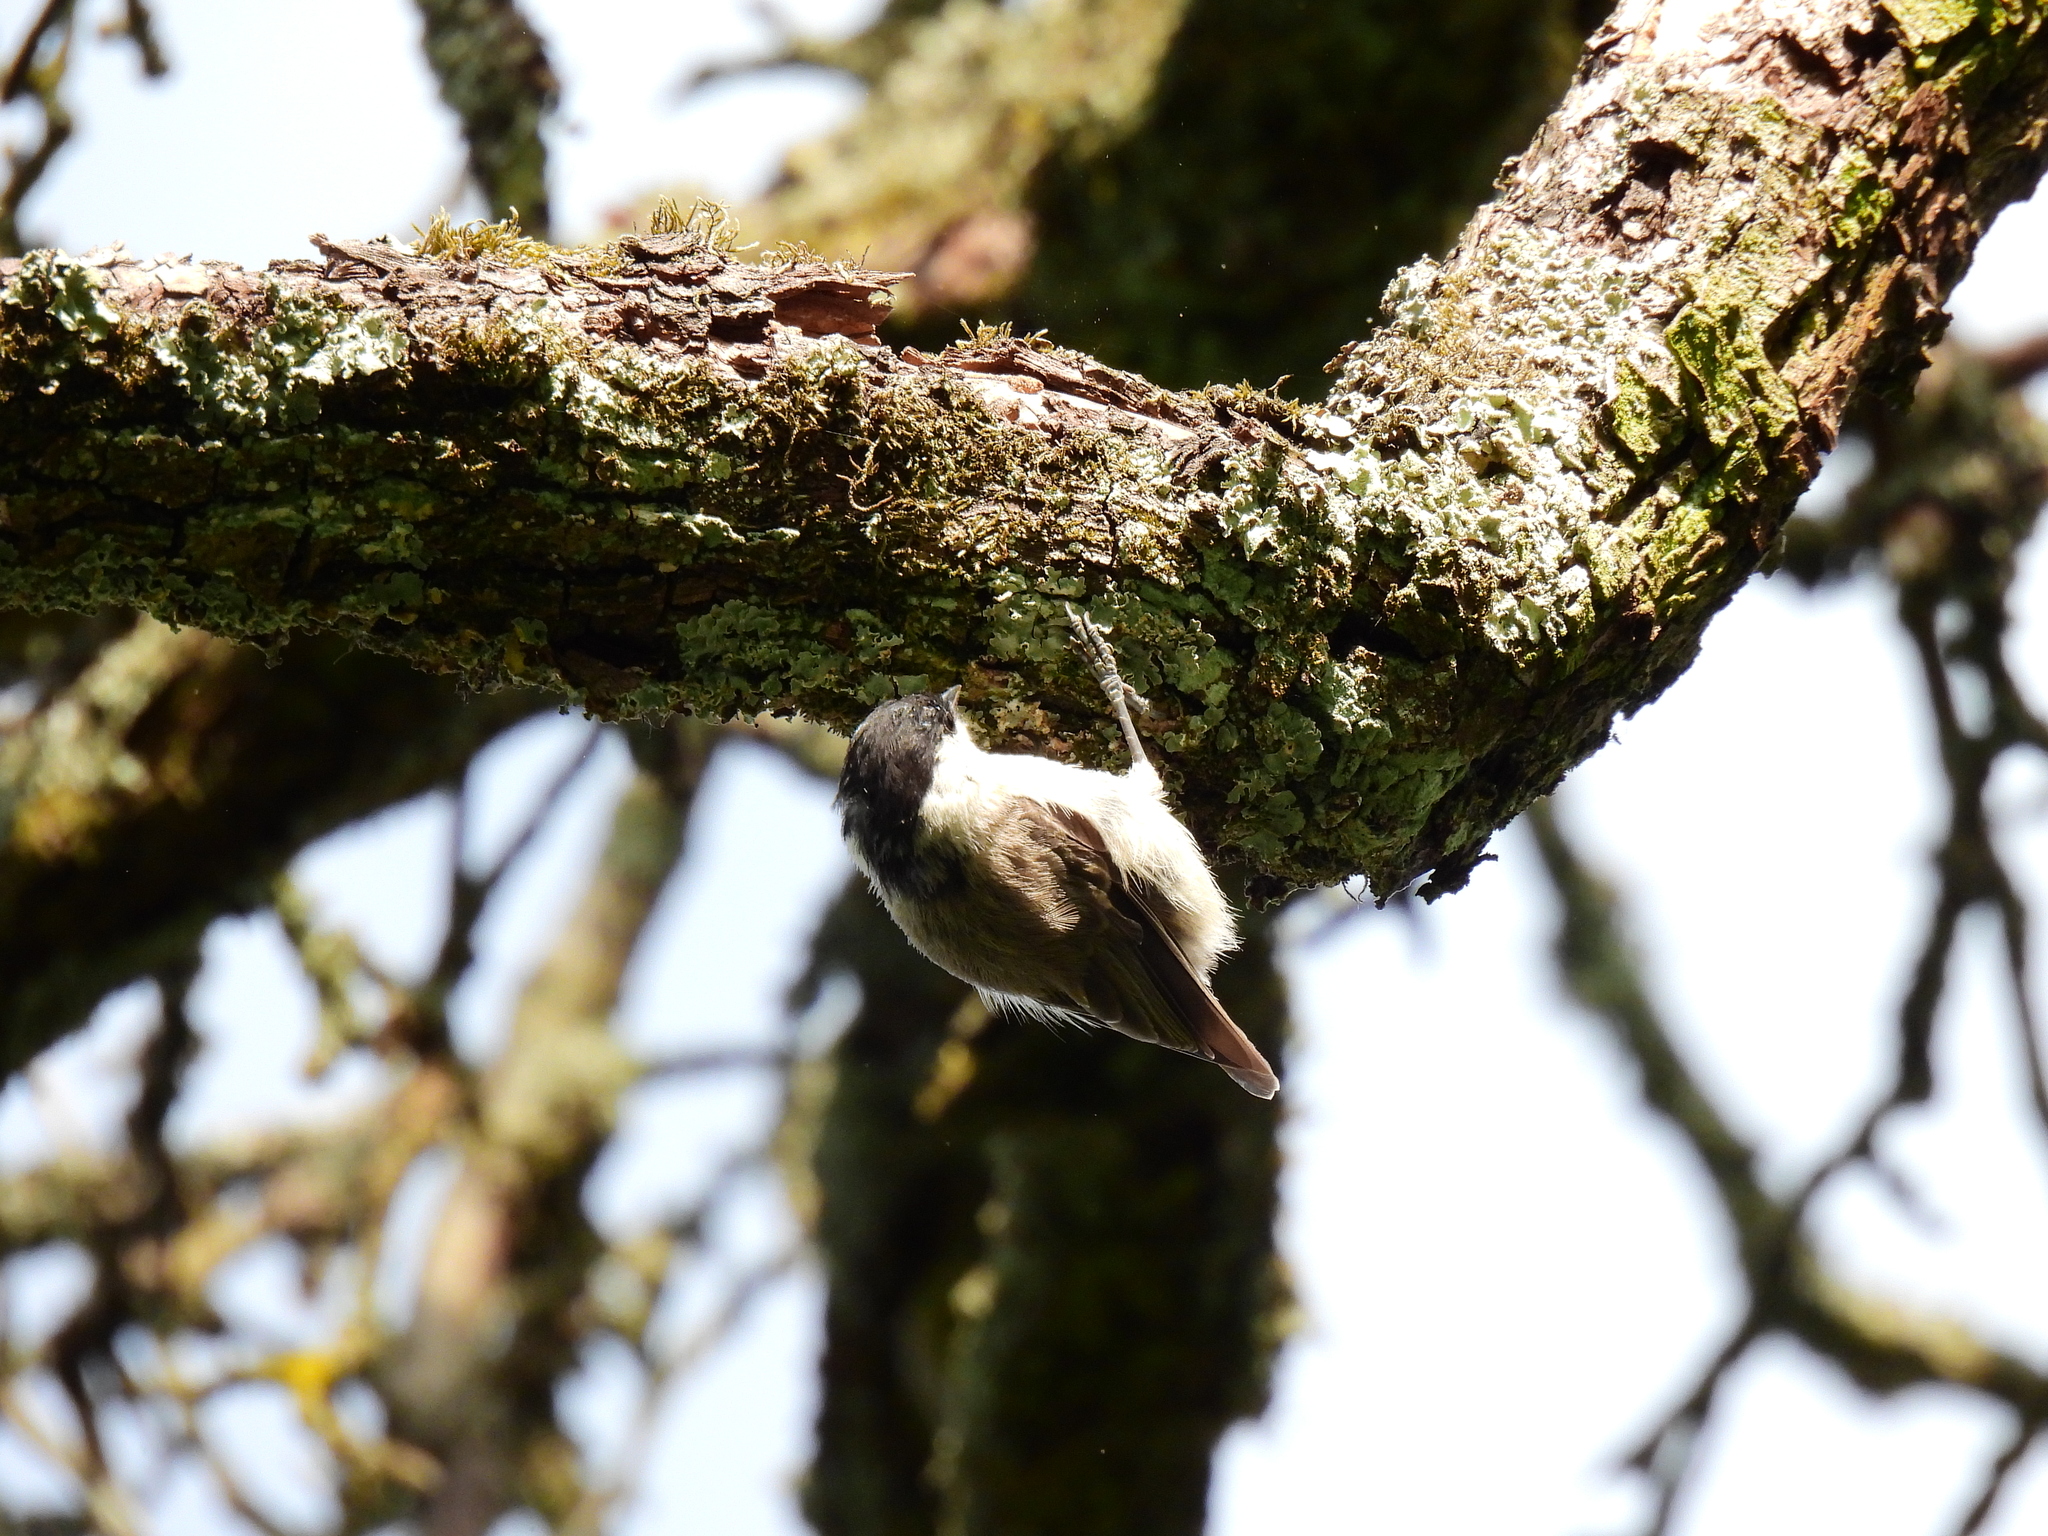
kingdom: Animalia
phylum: Chordata
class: Aves
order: Passeriformes
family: Paridae
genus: Poecile
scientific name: Poecile palustris
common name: Marsh tit
